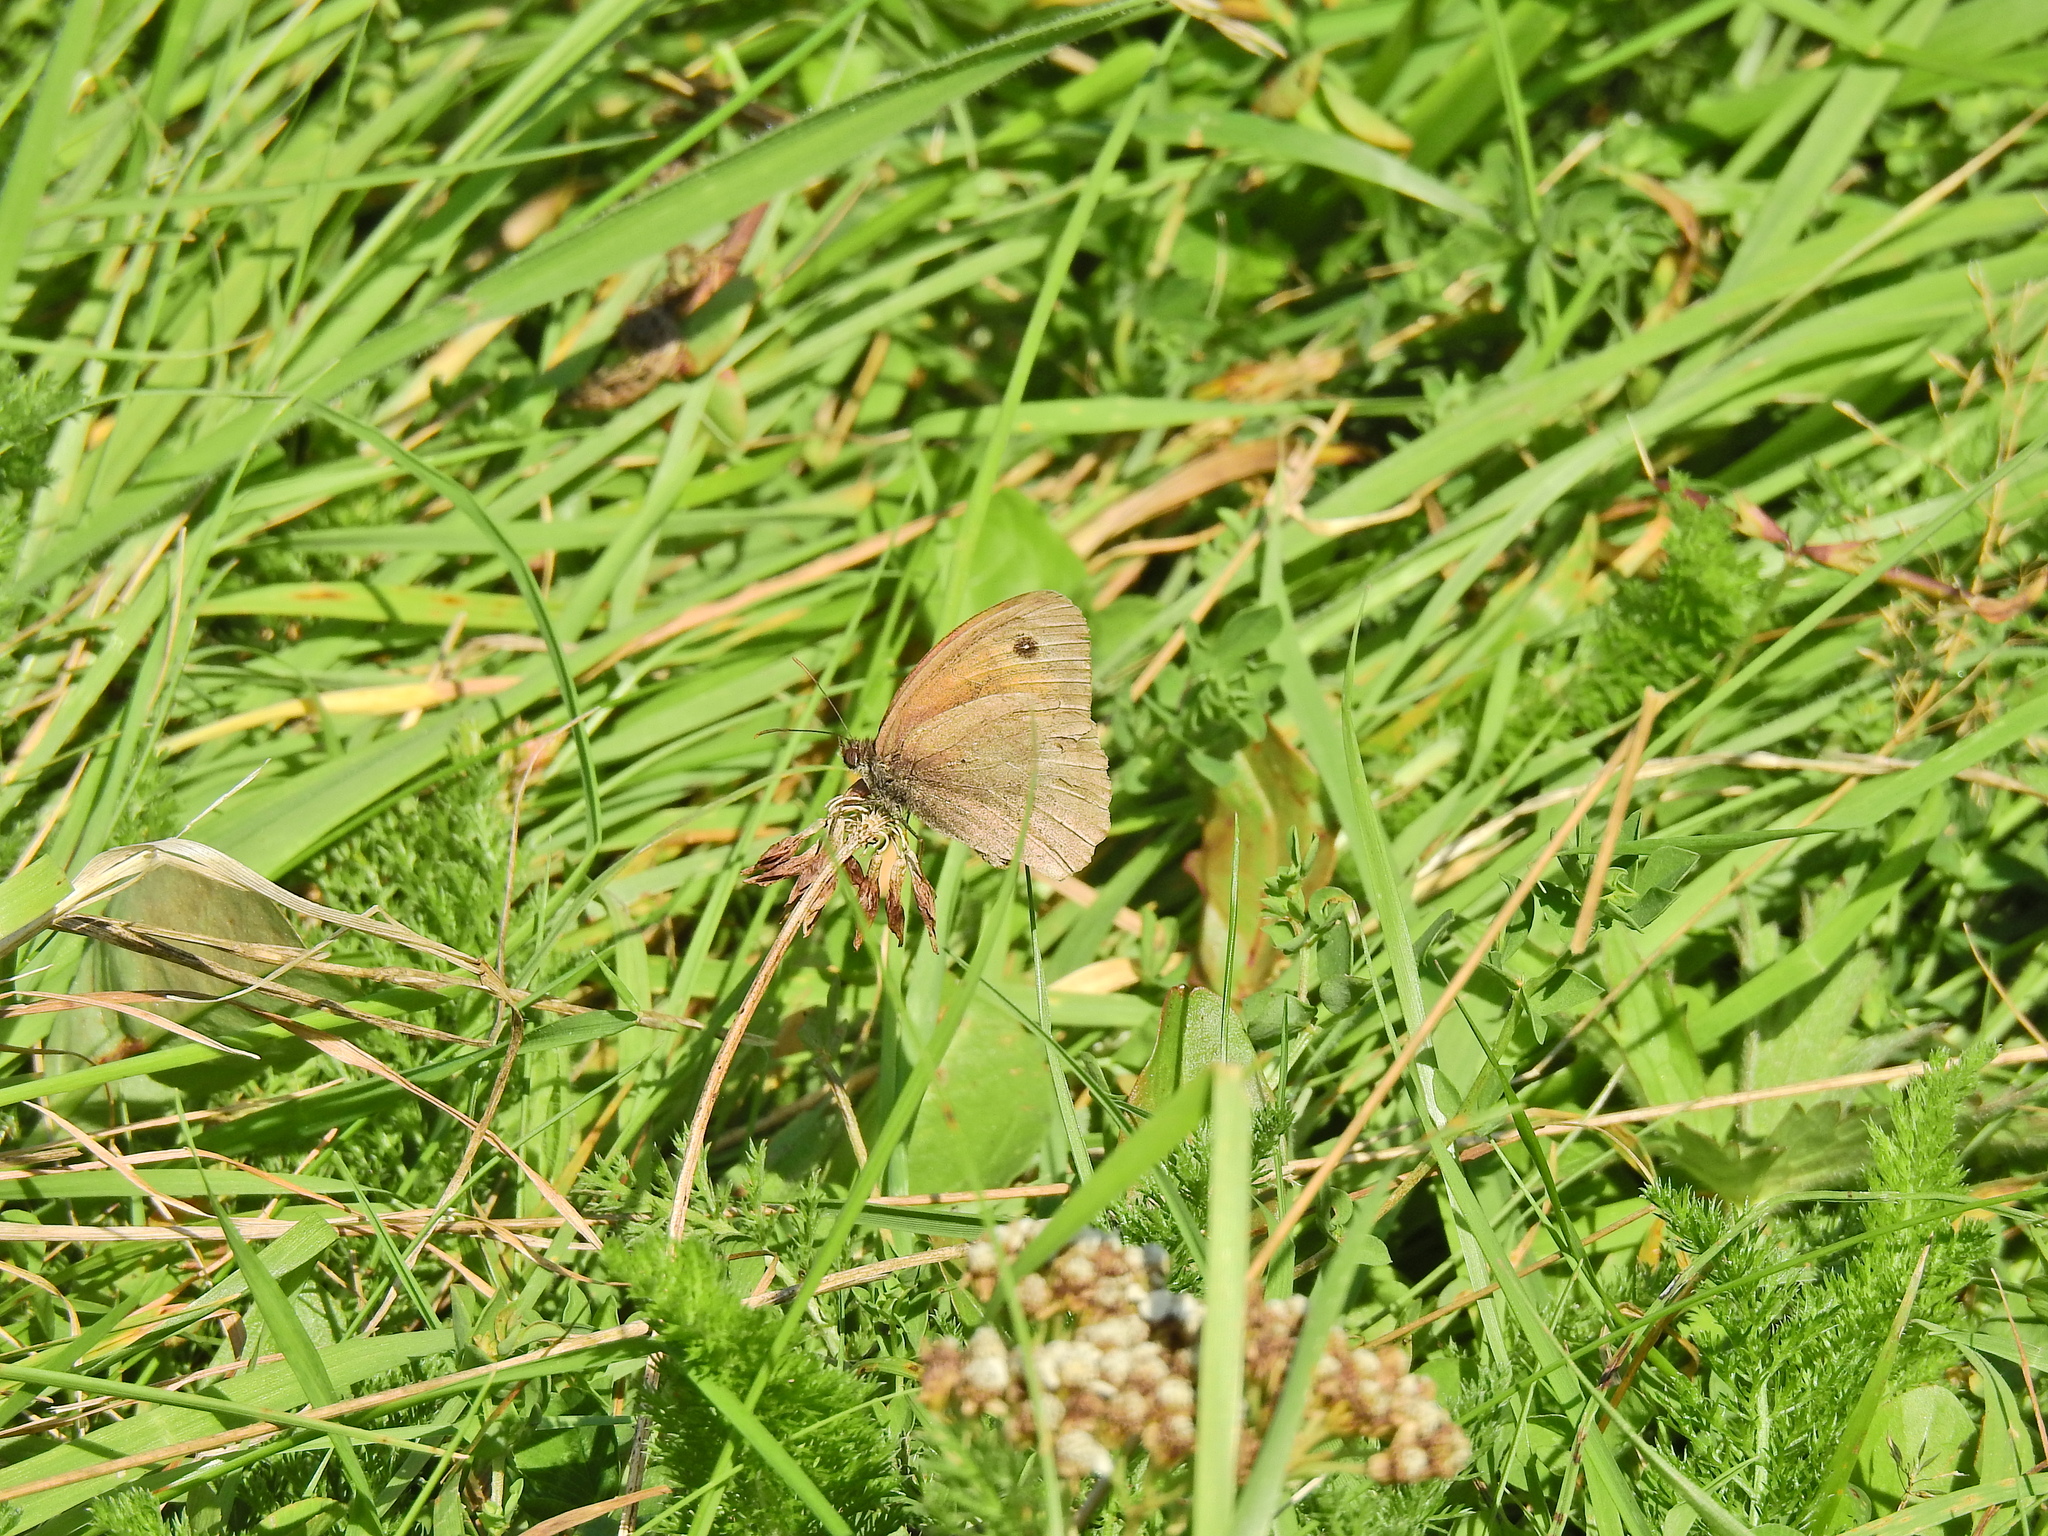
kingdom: Animalia
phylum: Arthropoda
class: Insecta
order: Lepidoptera
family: Nymphalidae
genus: Maniola
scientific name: Maniola jurtina
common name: Meadow brown
